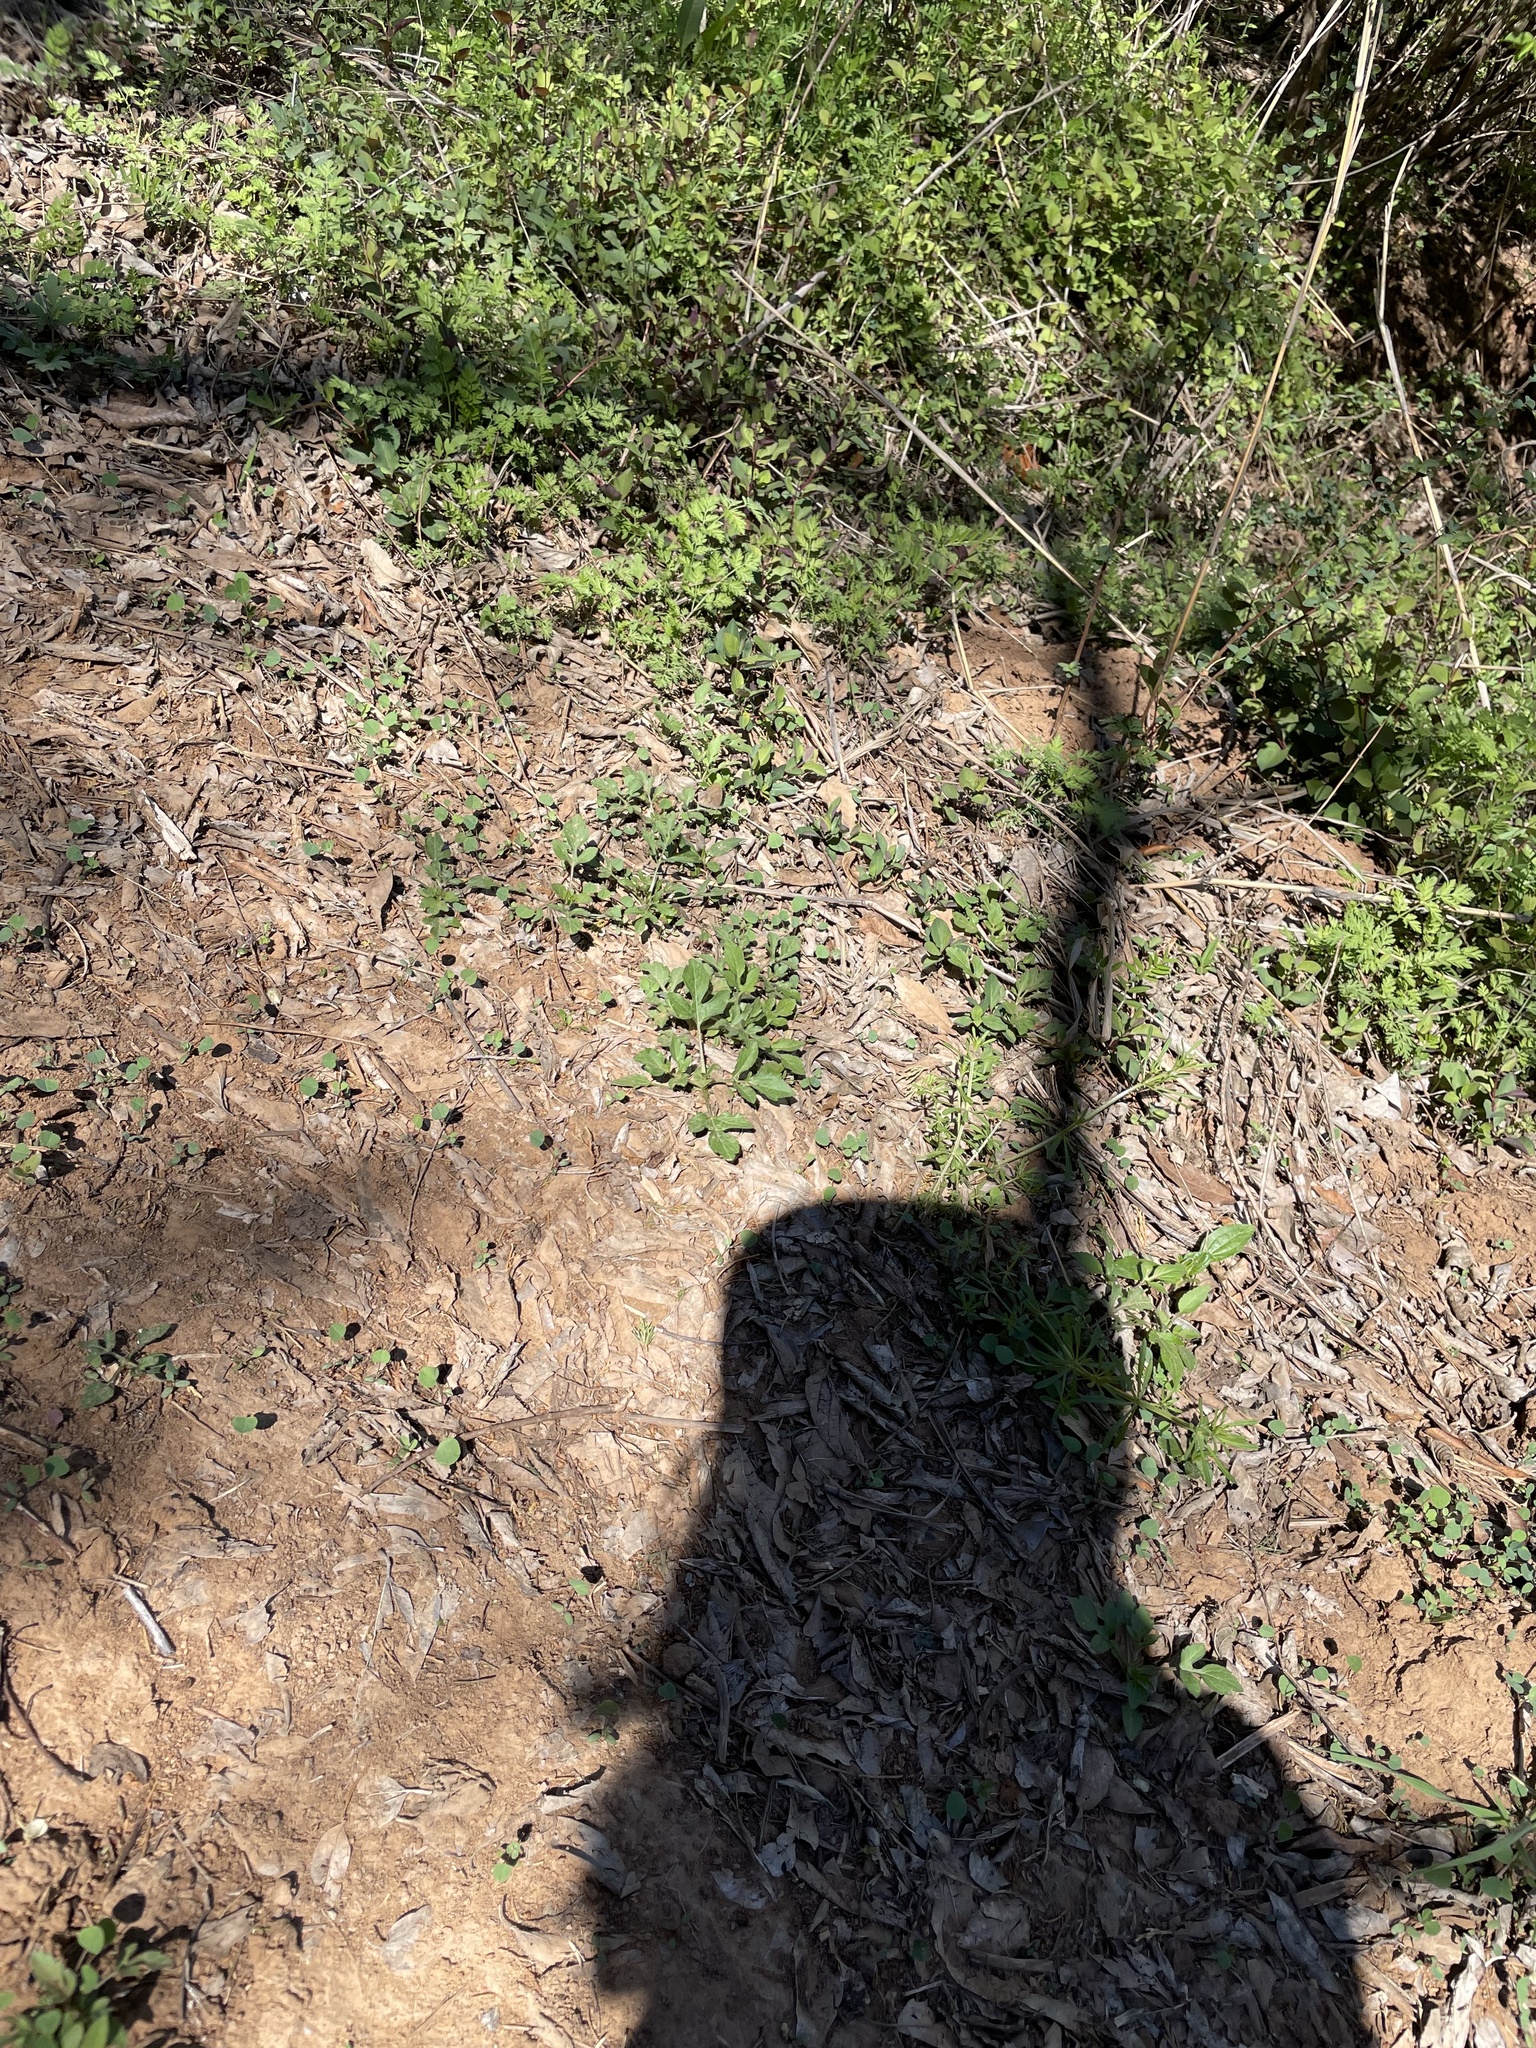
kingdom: Animalia
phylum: Arthropoda
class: Insecta
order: Lepidoptera
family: Nymphalidae
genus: Euptychia
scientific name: Euptychia cornelius
